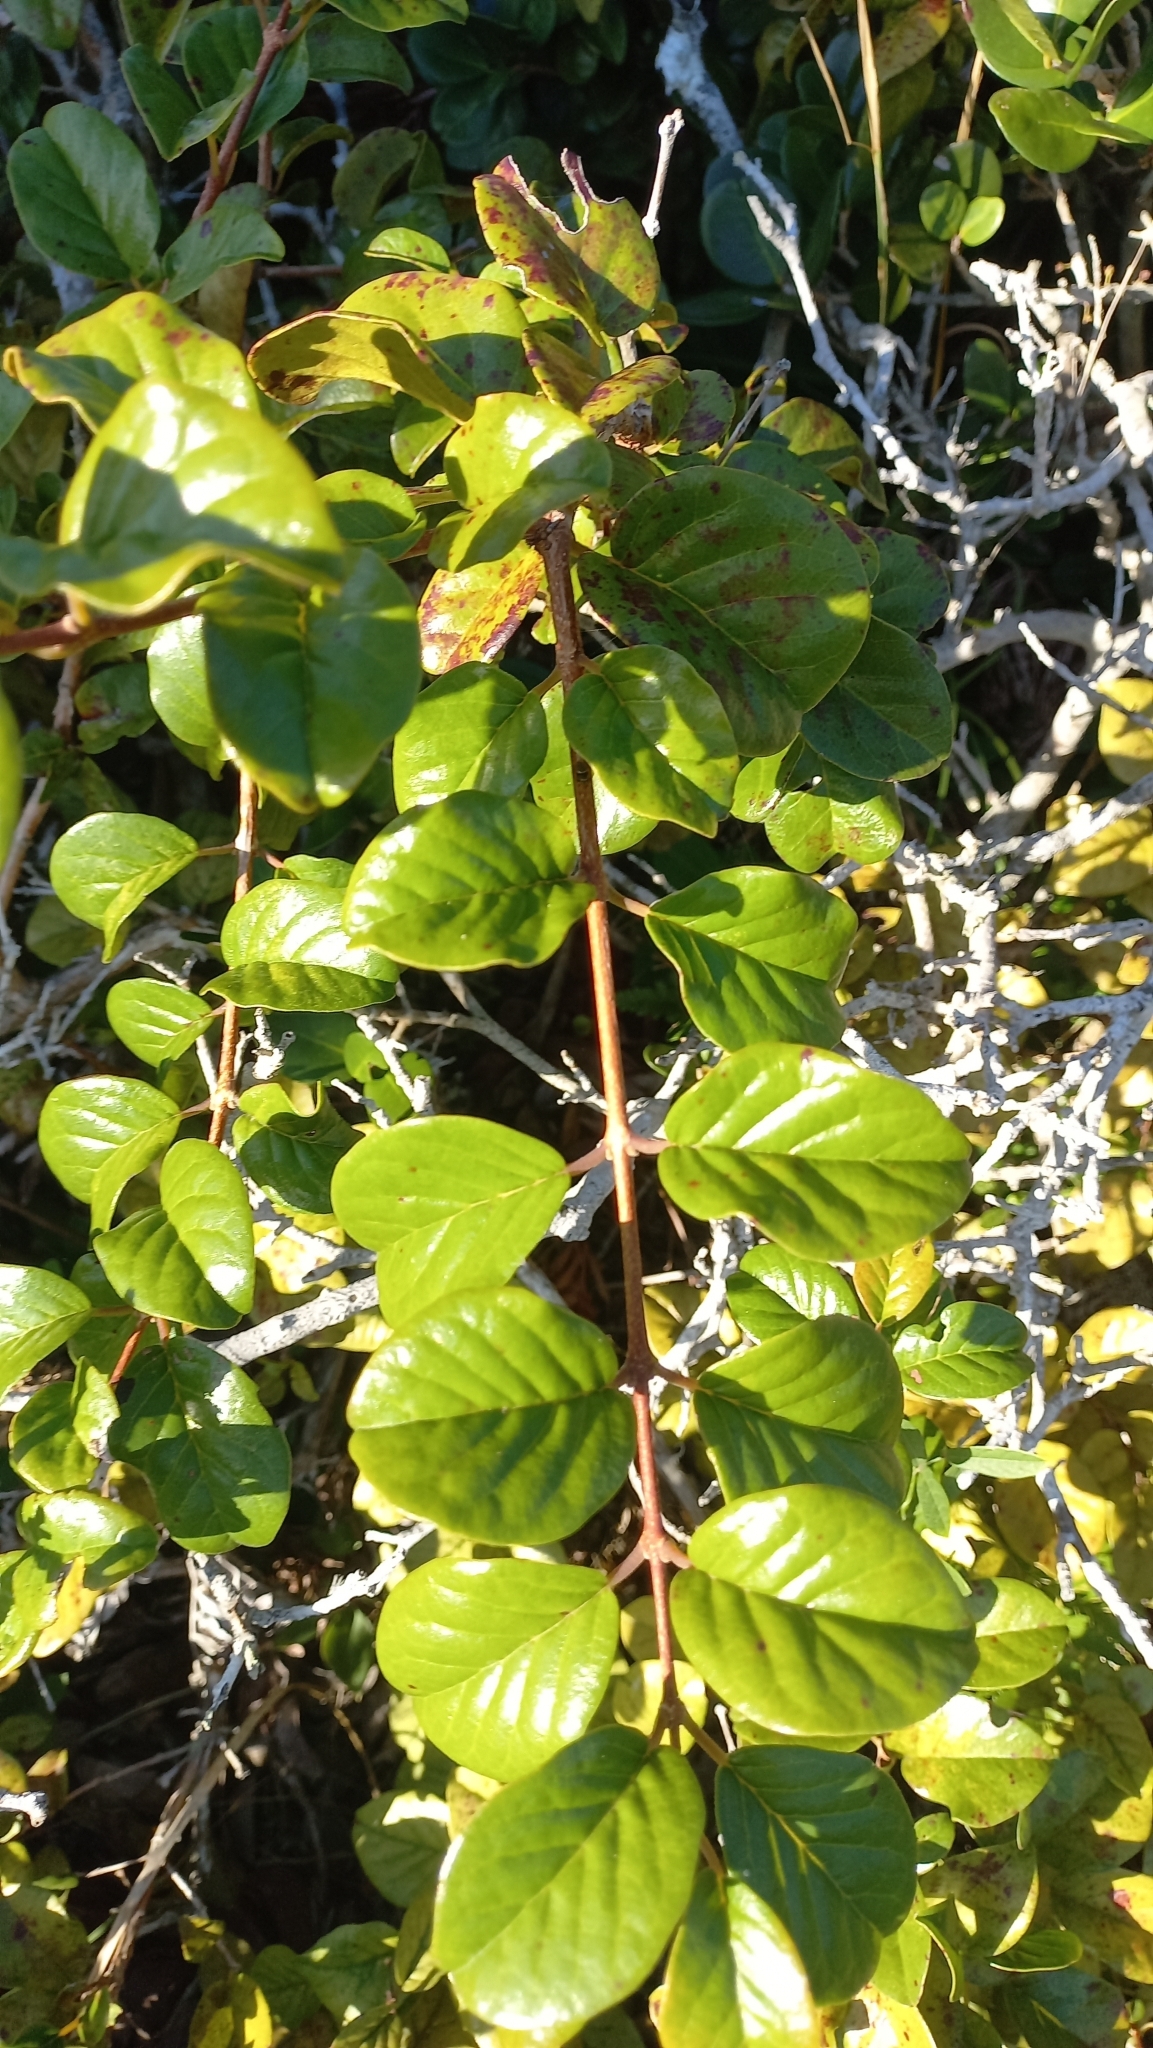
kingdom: Plantae
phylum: Tracheophyta
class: Magnoliopsida
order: Myrtales
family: Myrtaceae
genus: Campomanesia
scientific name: Campomanesia xanthocarpa
